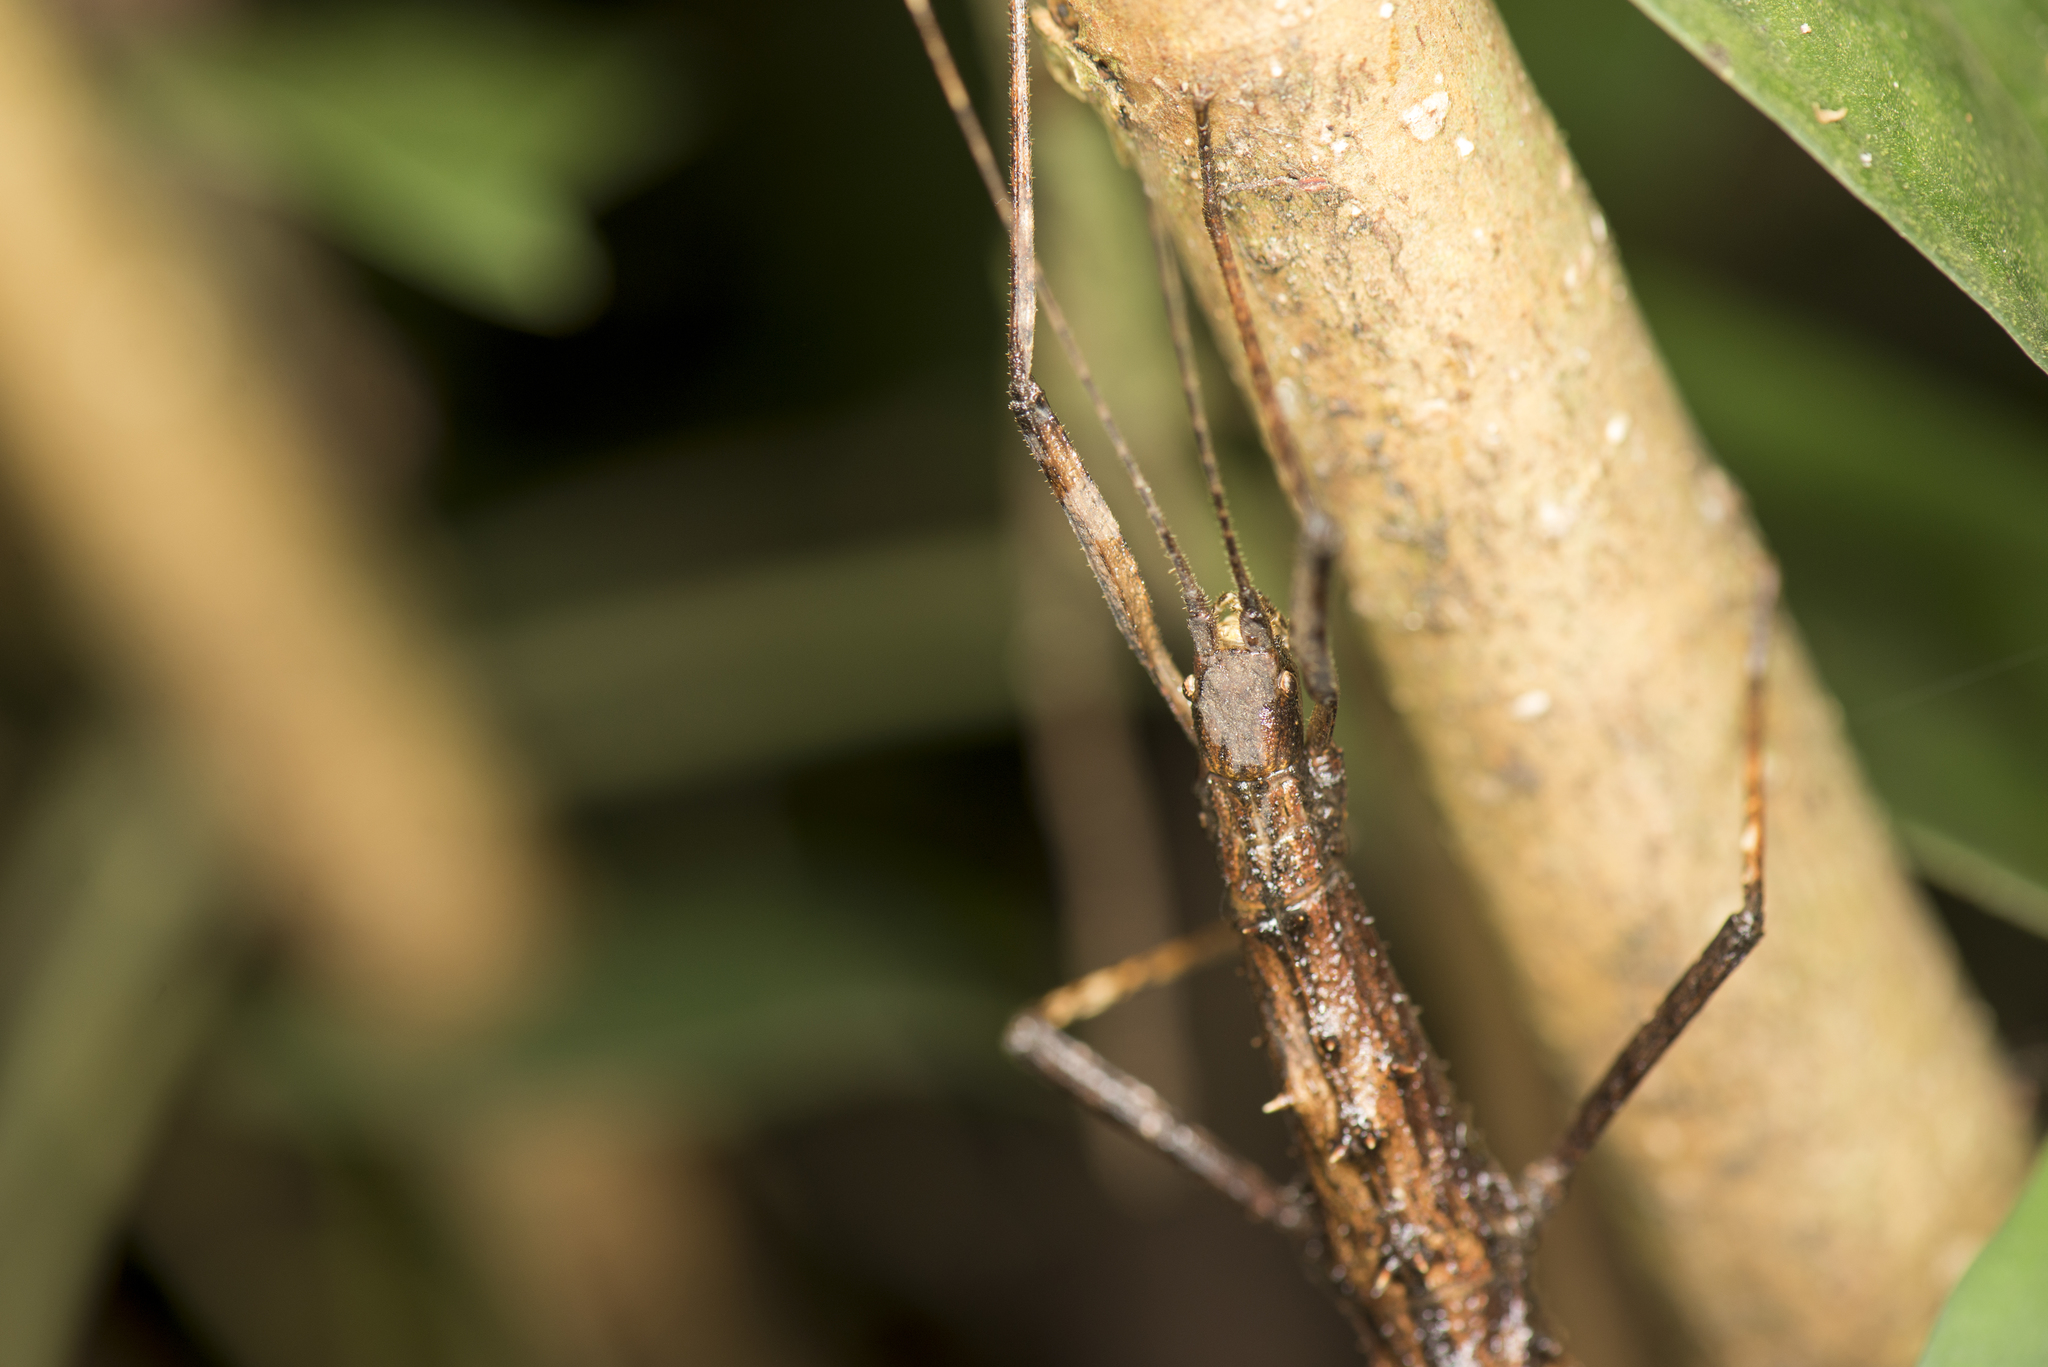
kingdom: Animalia
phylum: Arthropoda
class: Insecta
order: Phasmida
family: Lonchodidae
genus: Neohirasea
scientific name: Neohirasea japonica
